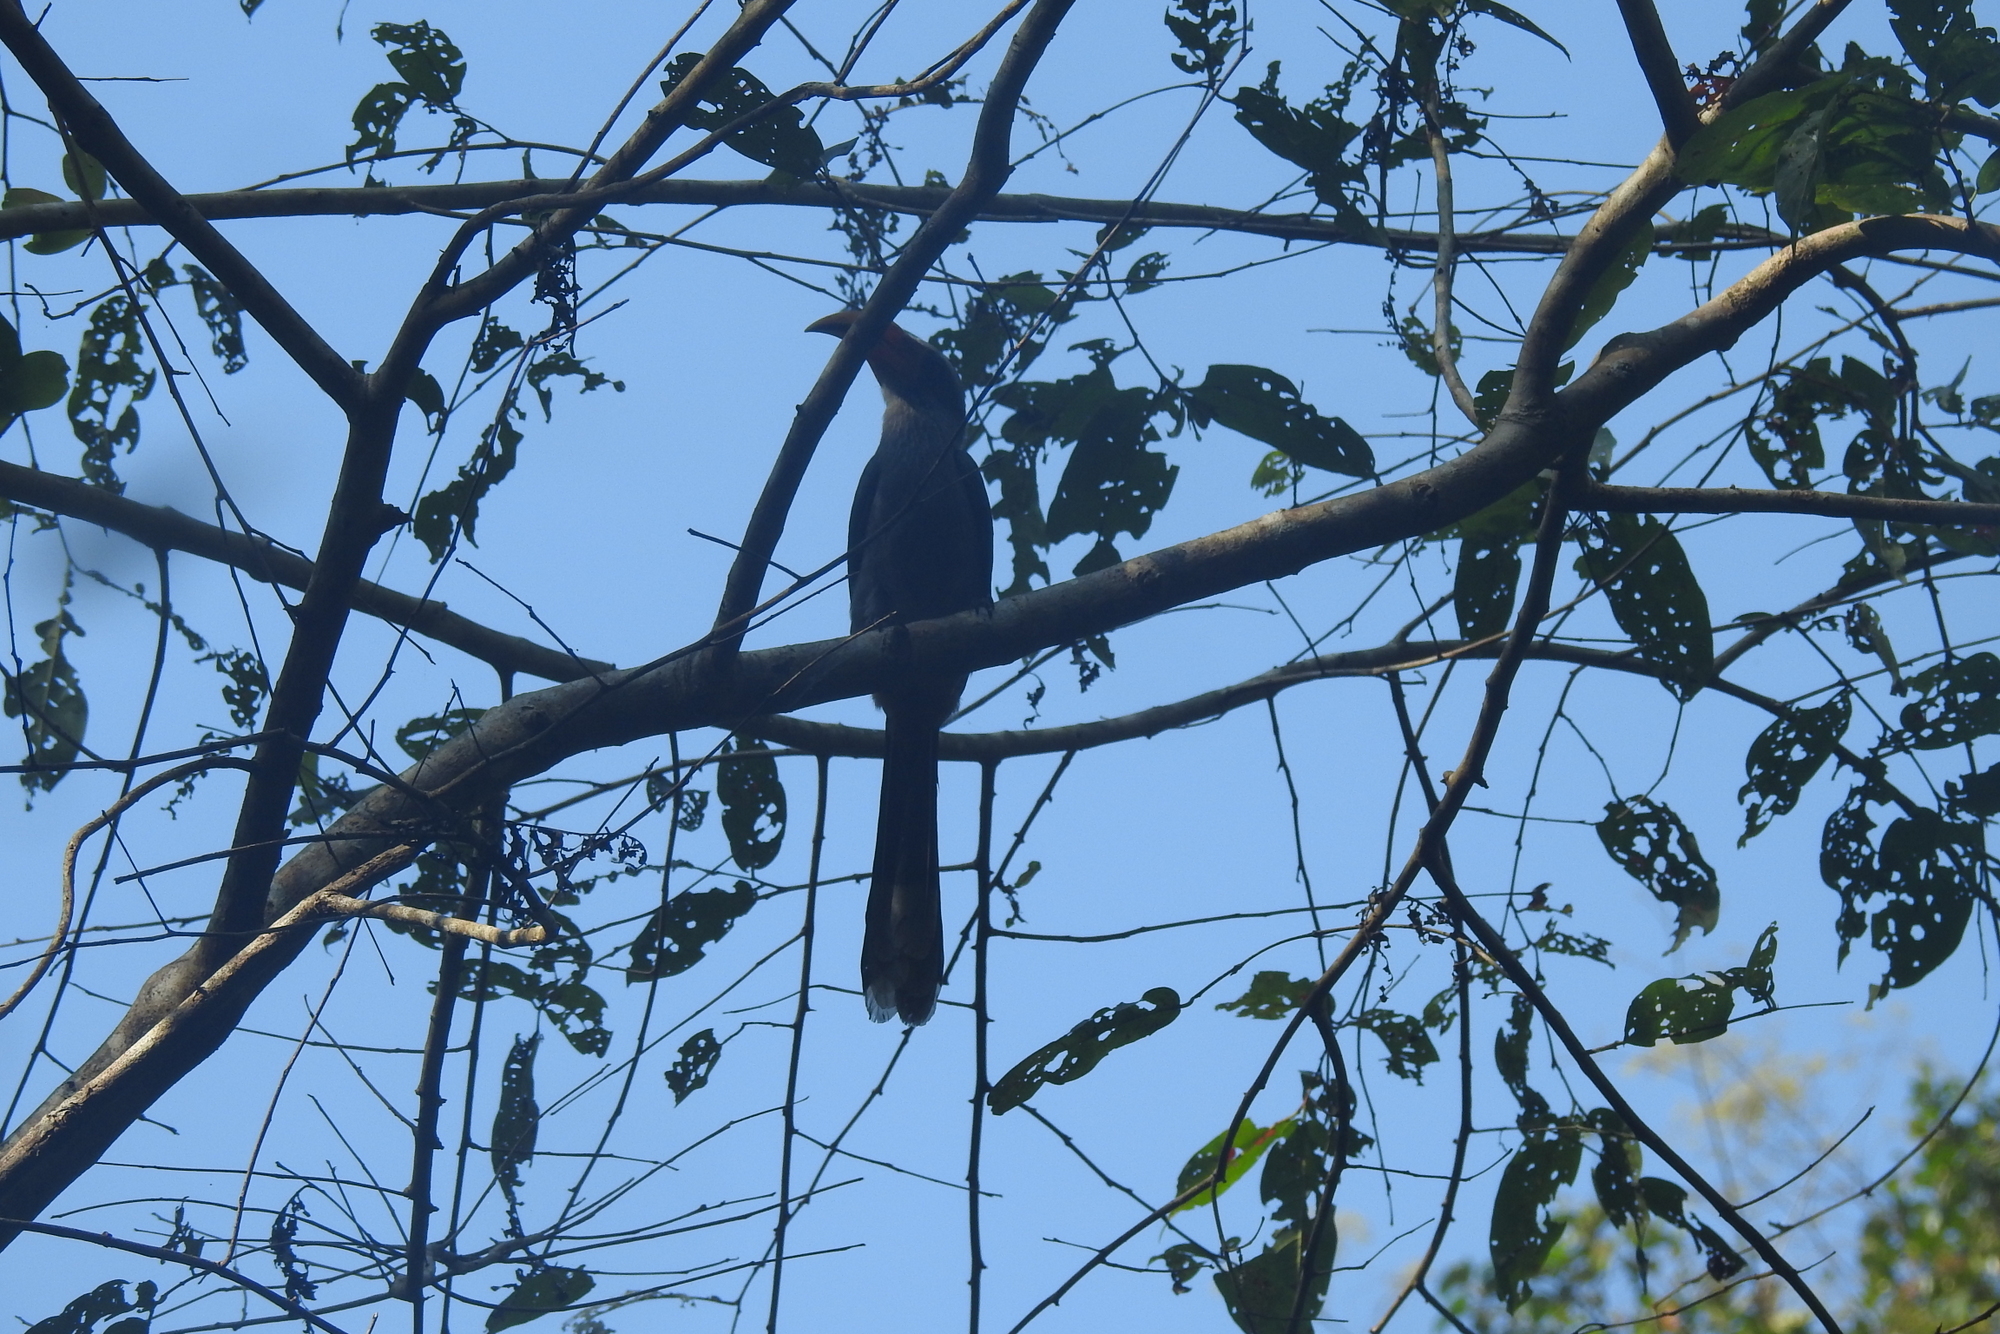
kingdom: Animalia
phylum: Chordata
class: Aves
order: Bucerotiformes
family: Bucerotidae
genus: Ocyceros
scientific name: Ocyceros griseus
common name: Malabar grey hornbill
